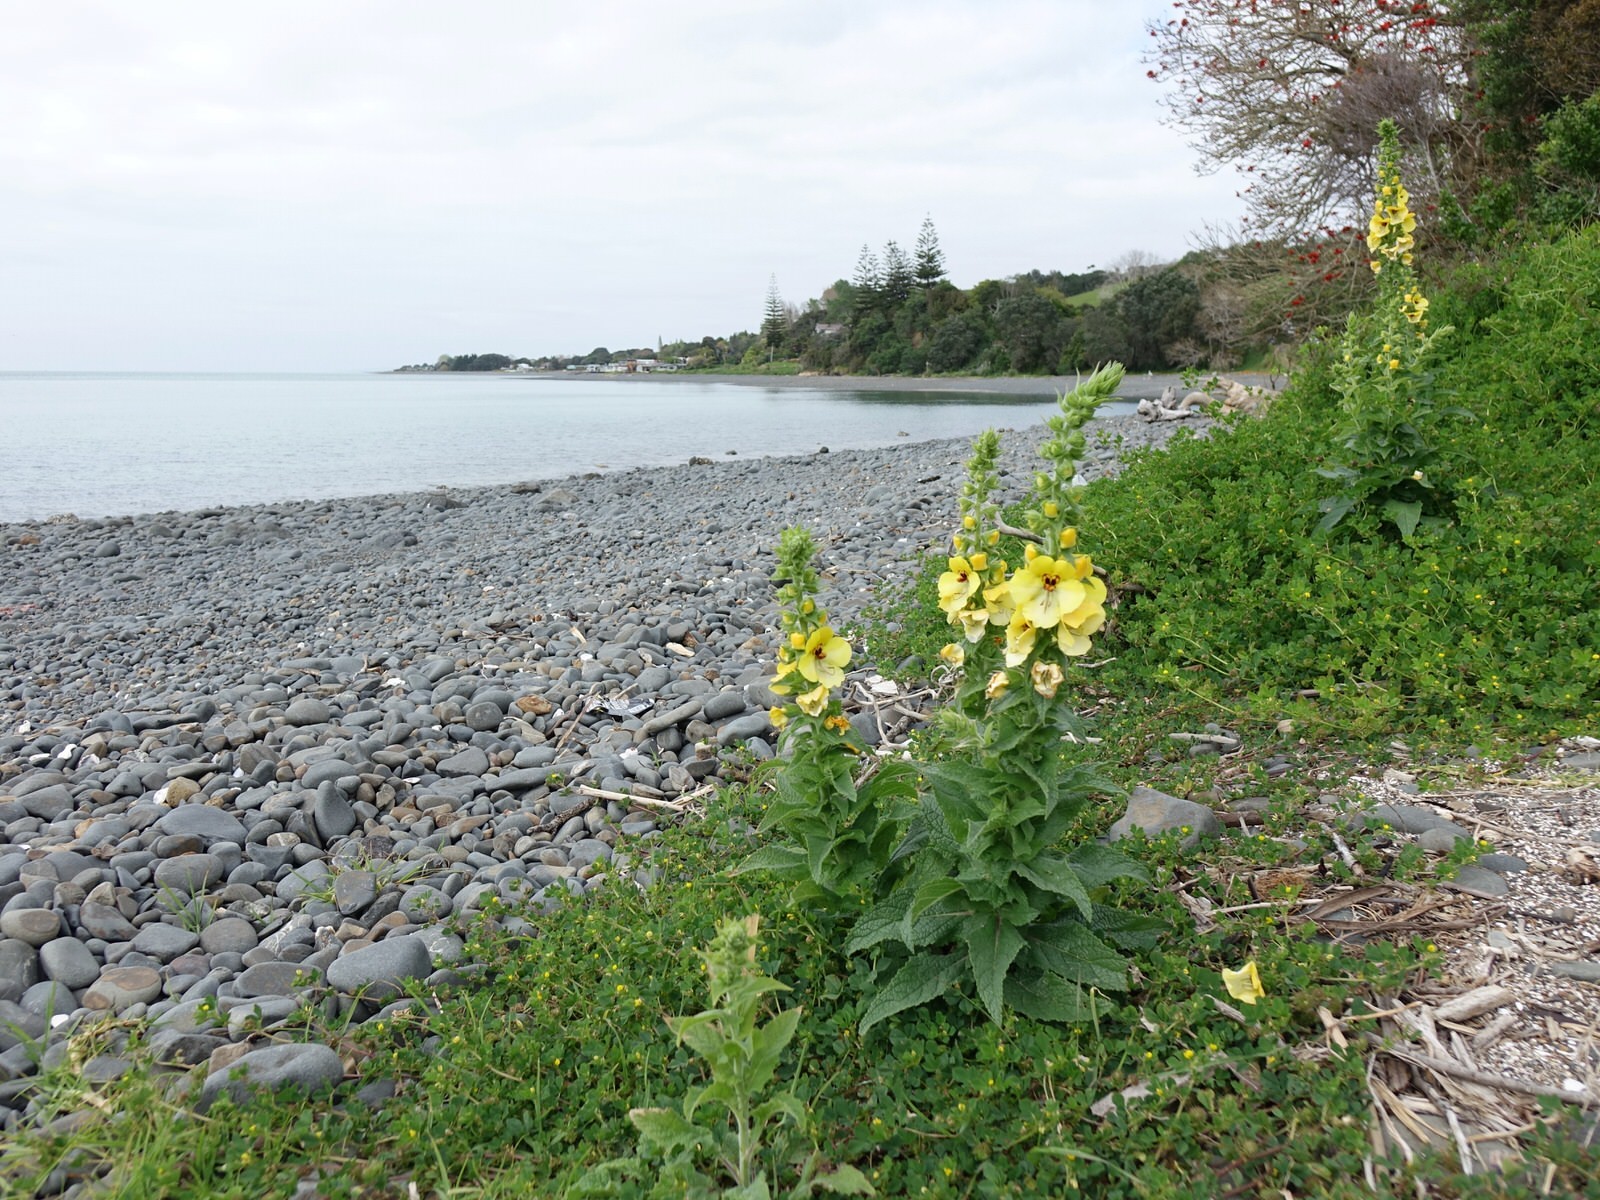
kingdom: Plantae
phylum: Tracheophyta
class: Magnoliopsida
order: Lamiales
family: Scrophulariaceae
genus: Verbascum
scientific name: Verbascum creticum
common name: Cretan mullein
